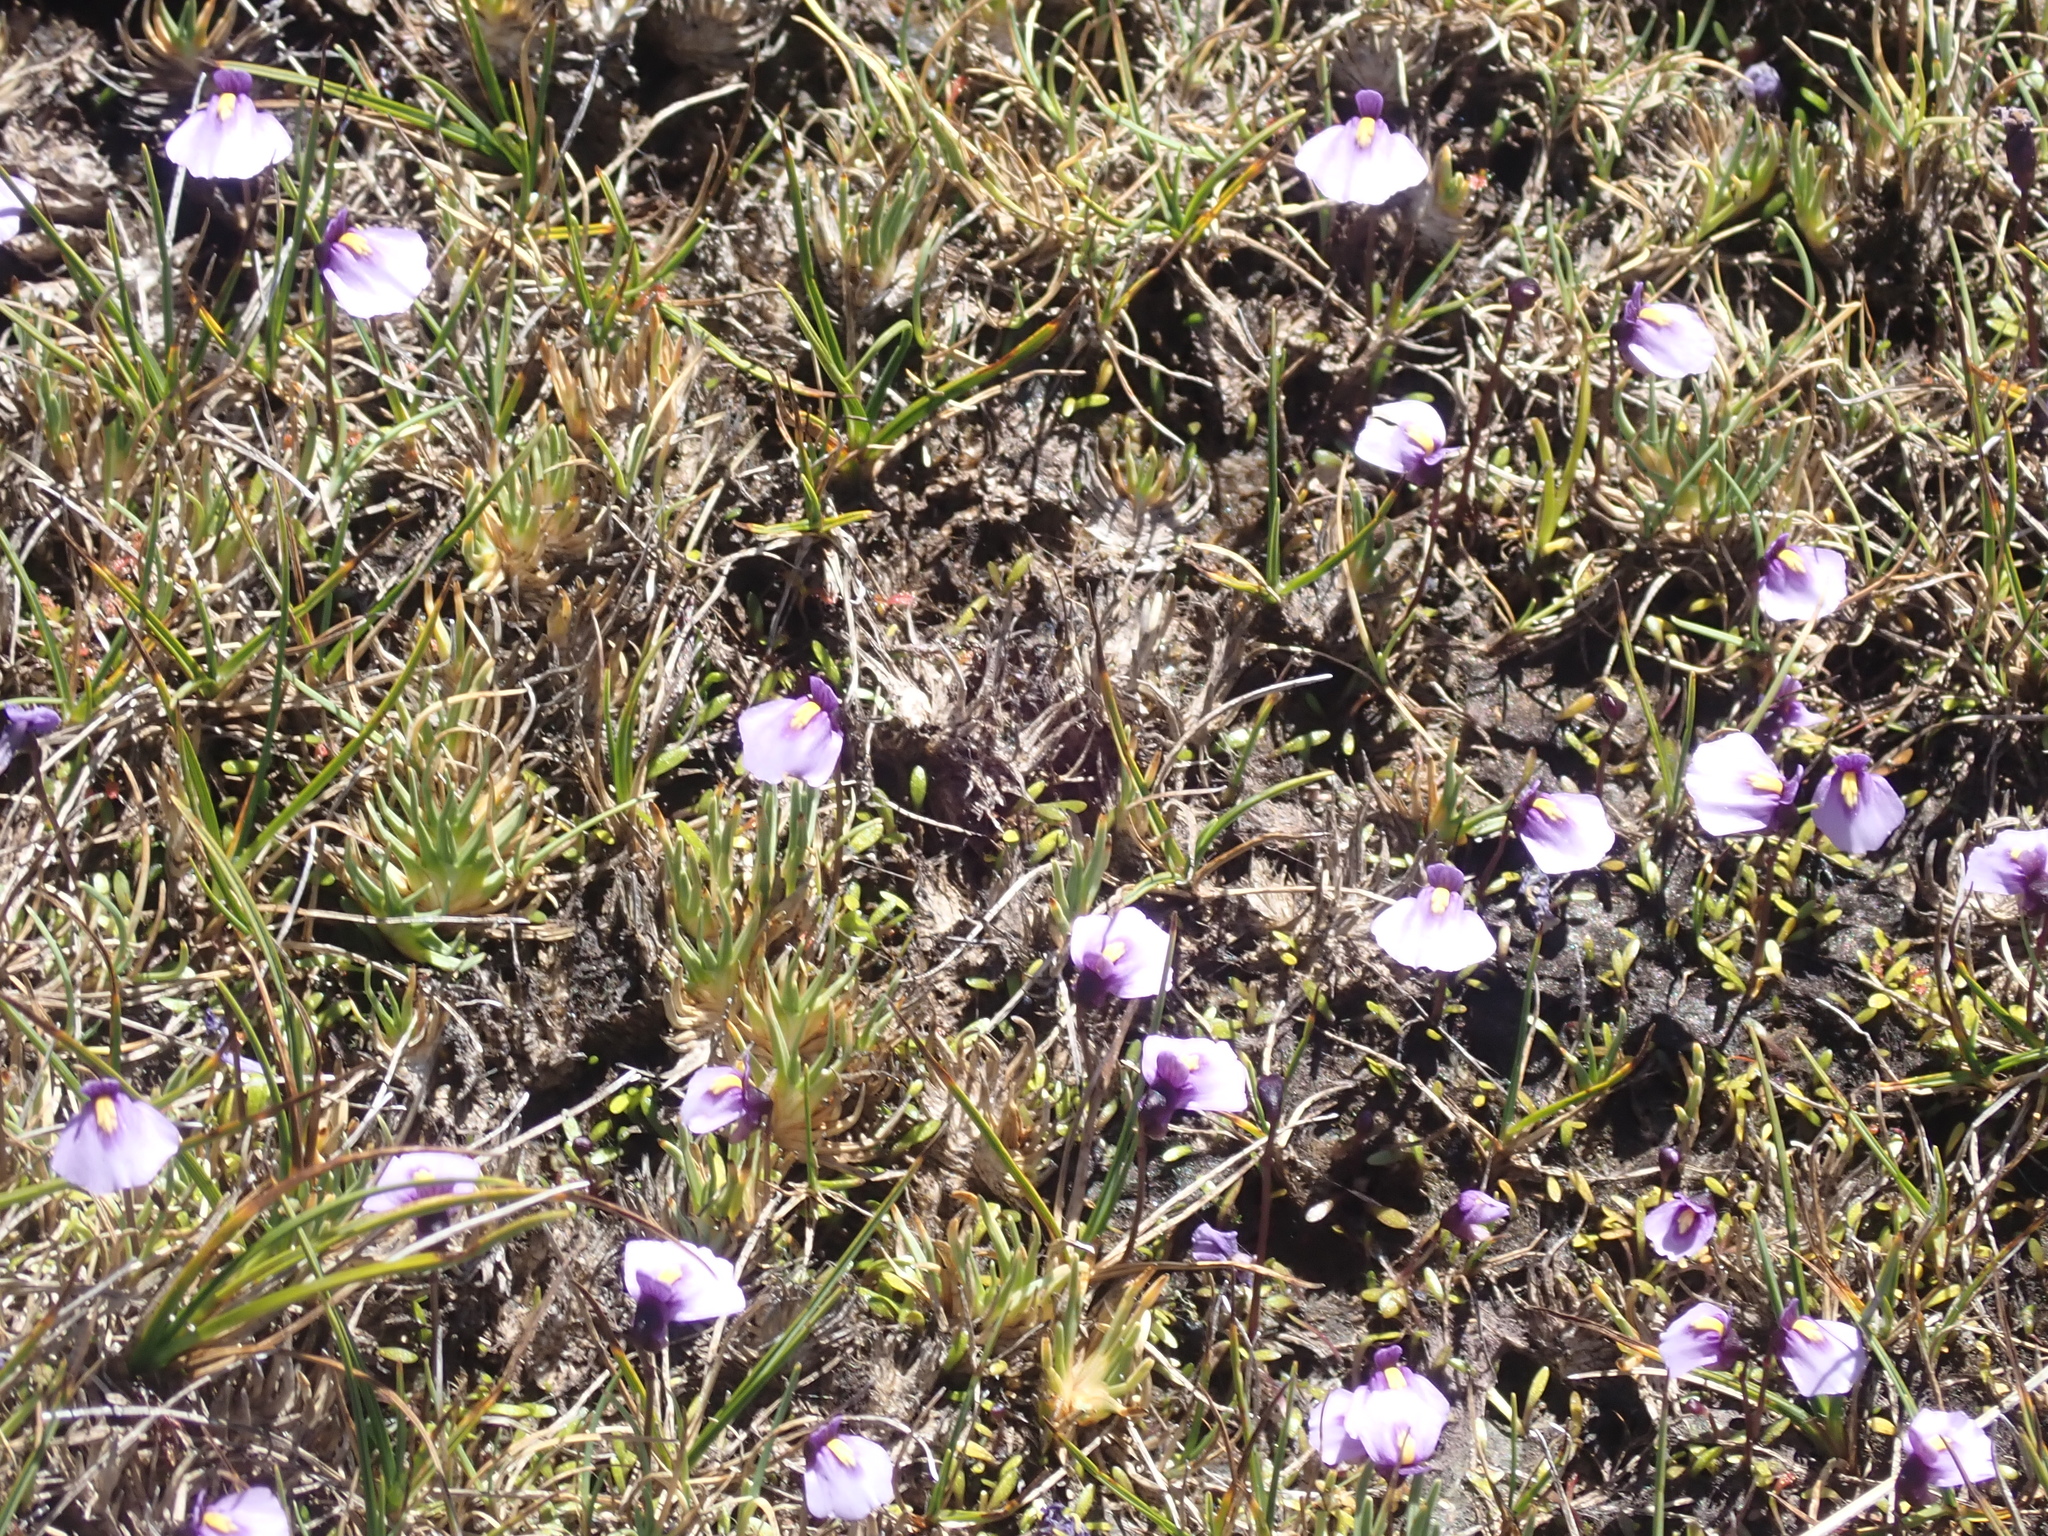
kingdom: Plantae
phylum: Tracheophyta
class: Magnoliopsida
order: Lamiales
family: Lentibulariaceae
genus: Utricularia
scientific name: Utricularia dichotoma
